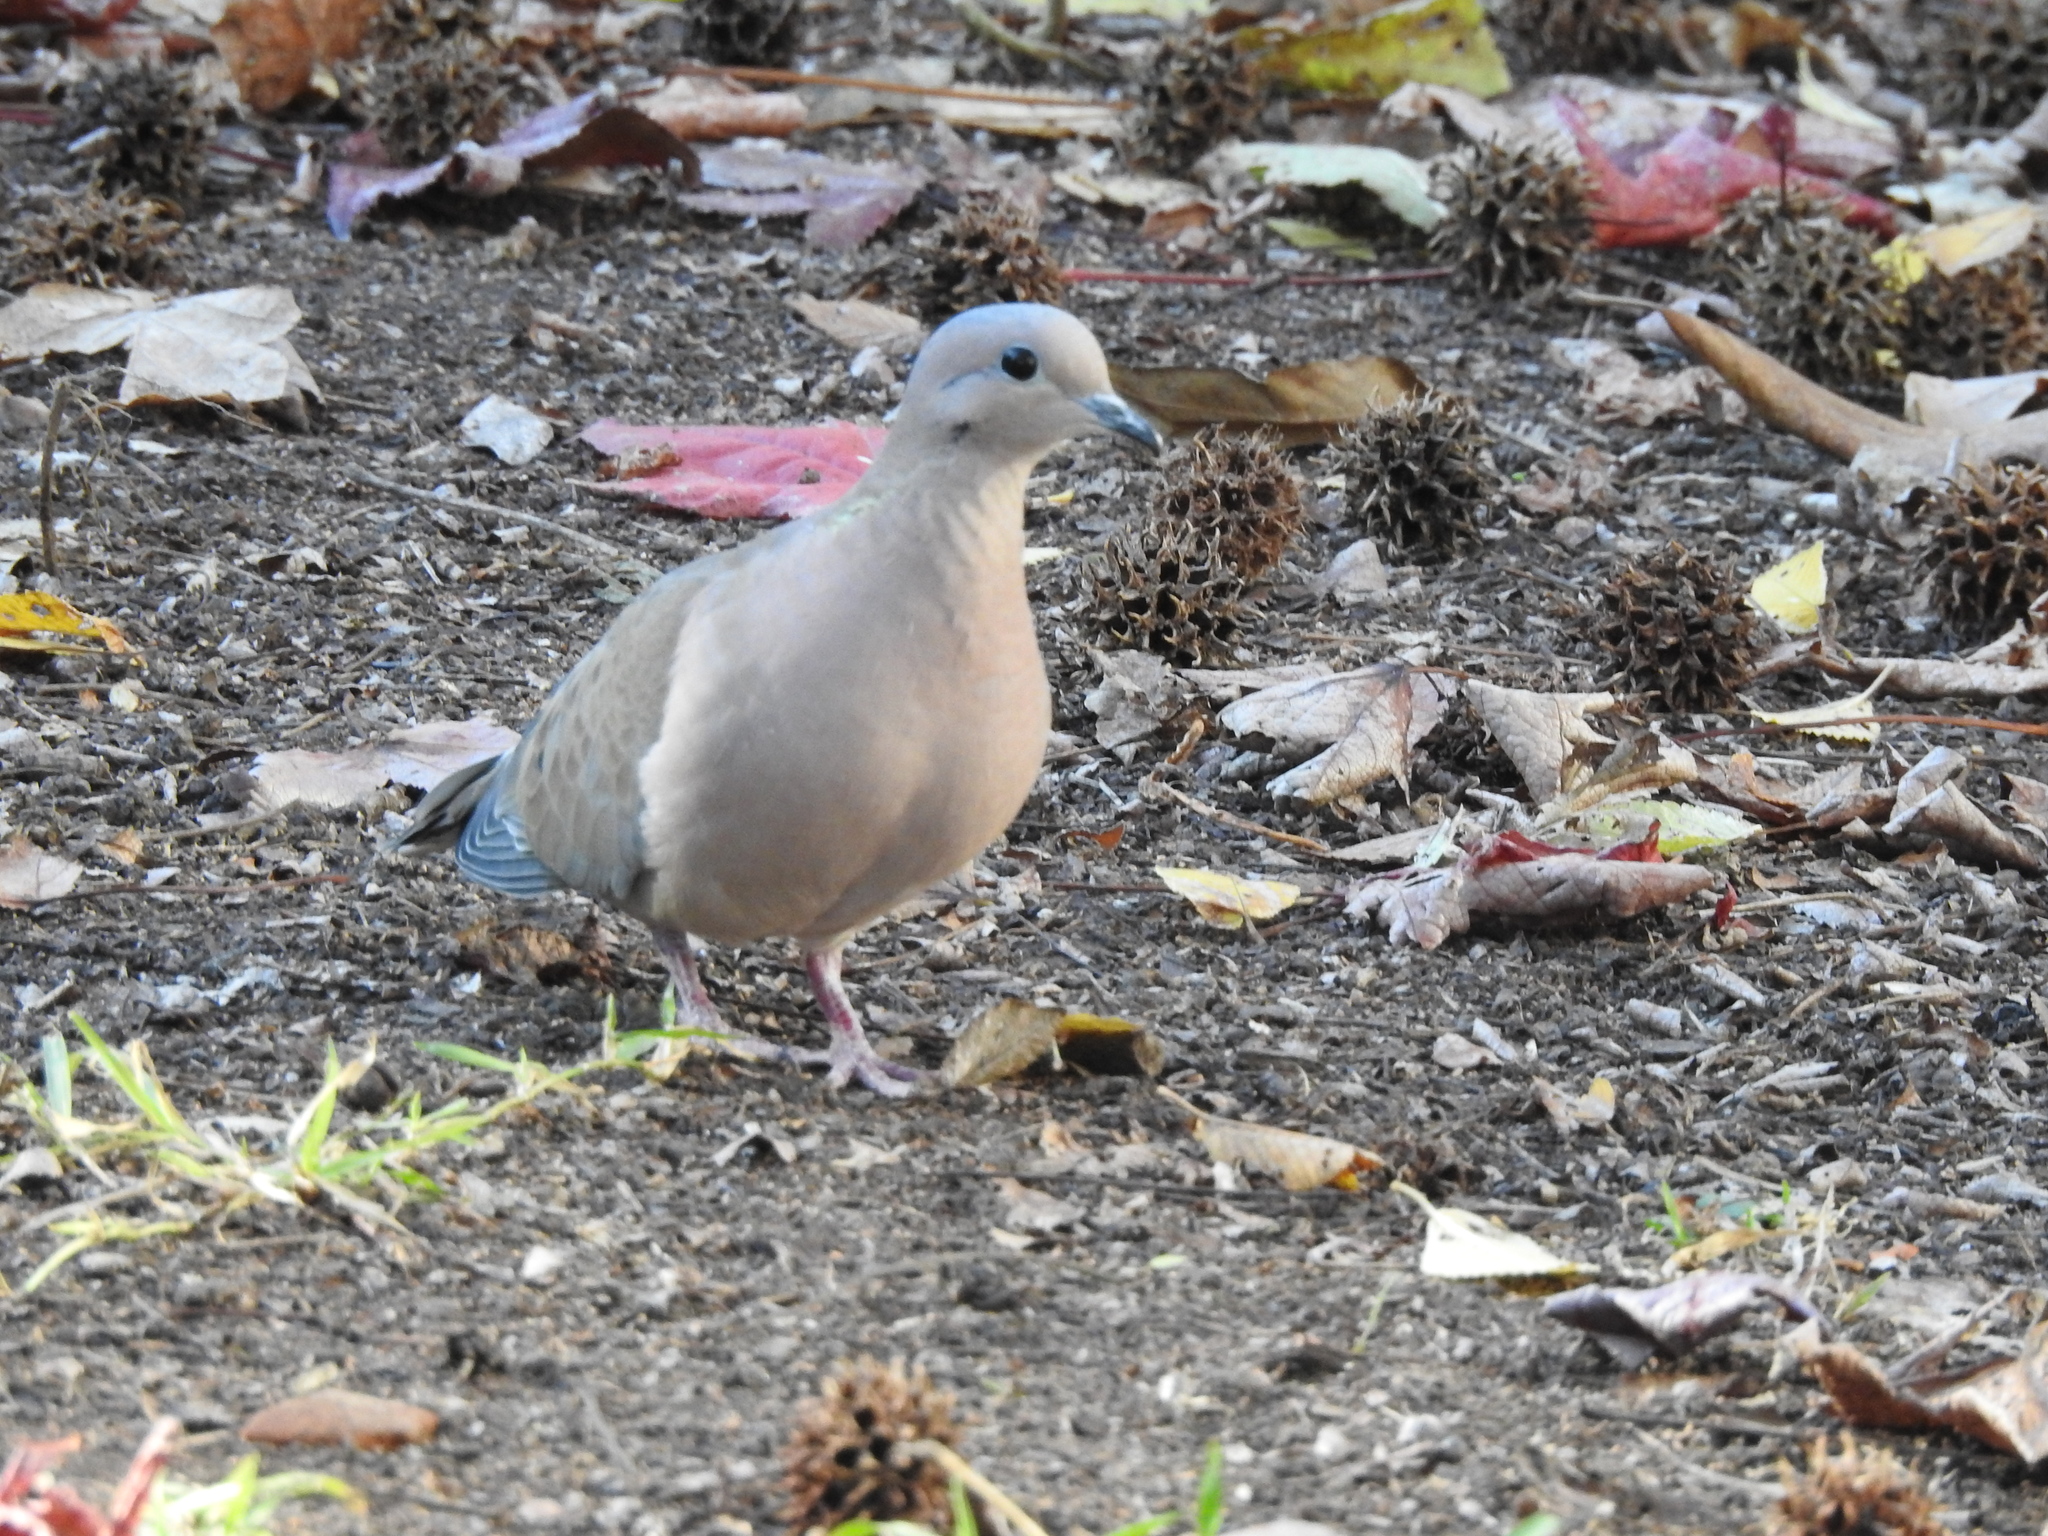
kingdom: Animalia
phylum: Chordata
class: Aves
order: Columbiformes
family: Columbidae
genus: Zenaida
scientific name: Zenaida auriculata
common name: Eared dove
